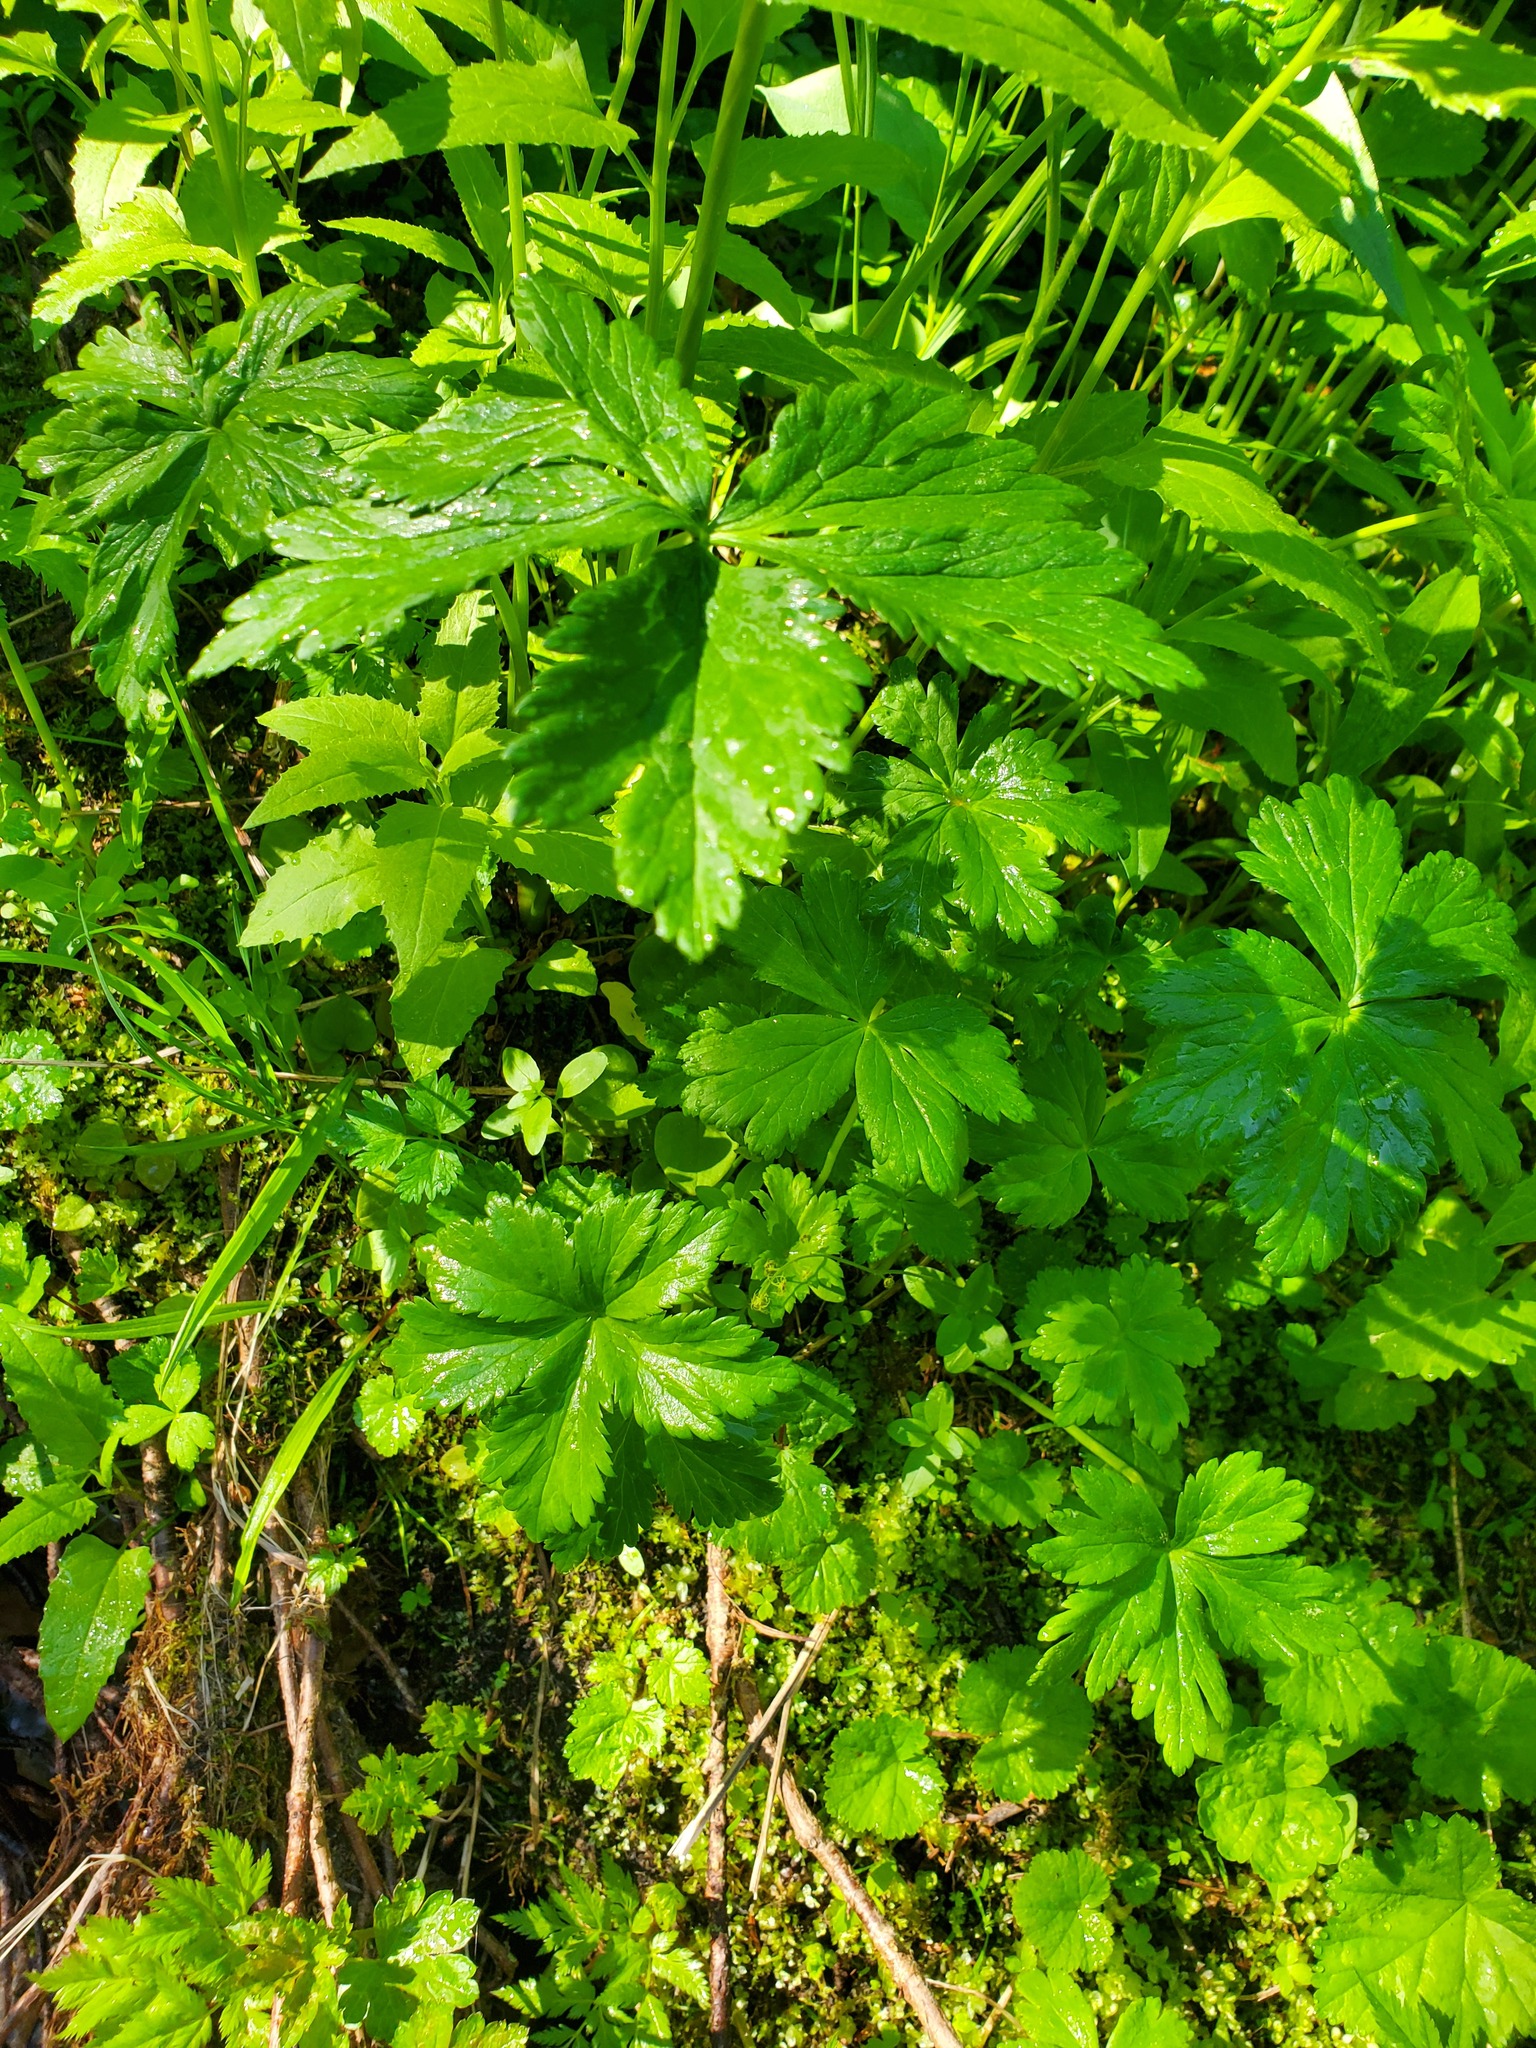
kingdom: Plantae
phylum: Tracheophyta
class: Magnoliopsida
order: Ranunculales
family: Ranunculaceae
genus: Trollius
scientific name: Trollius laxus
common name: American globeflower
